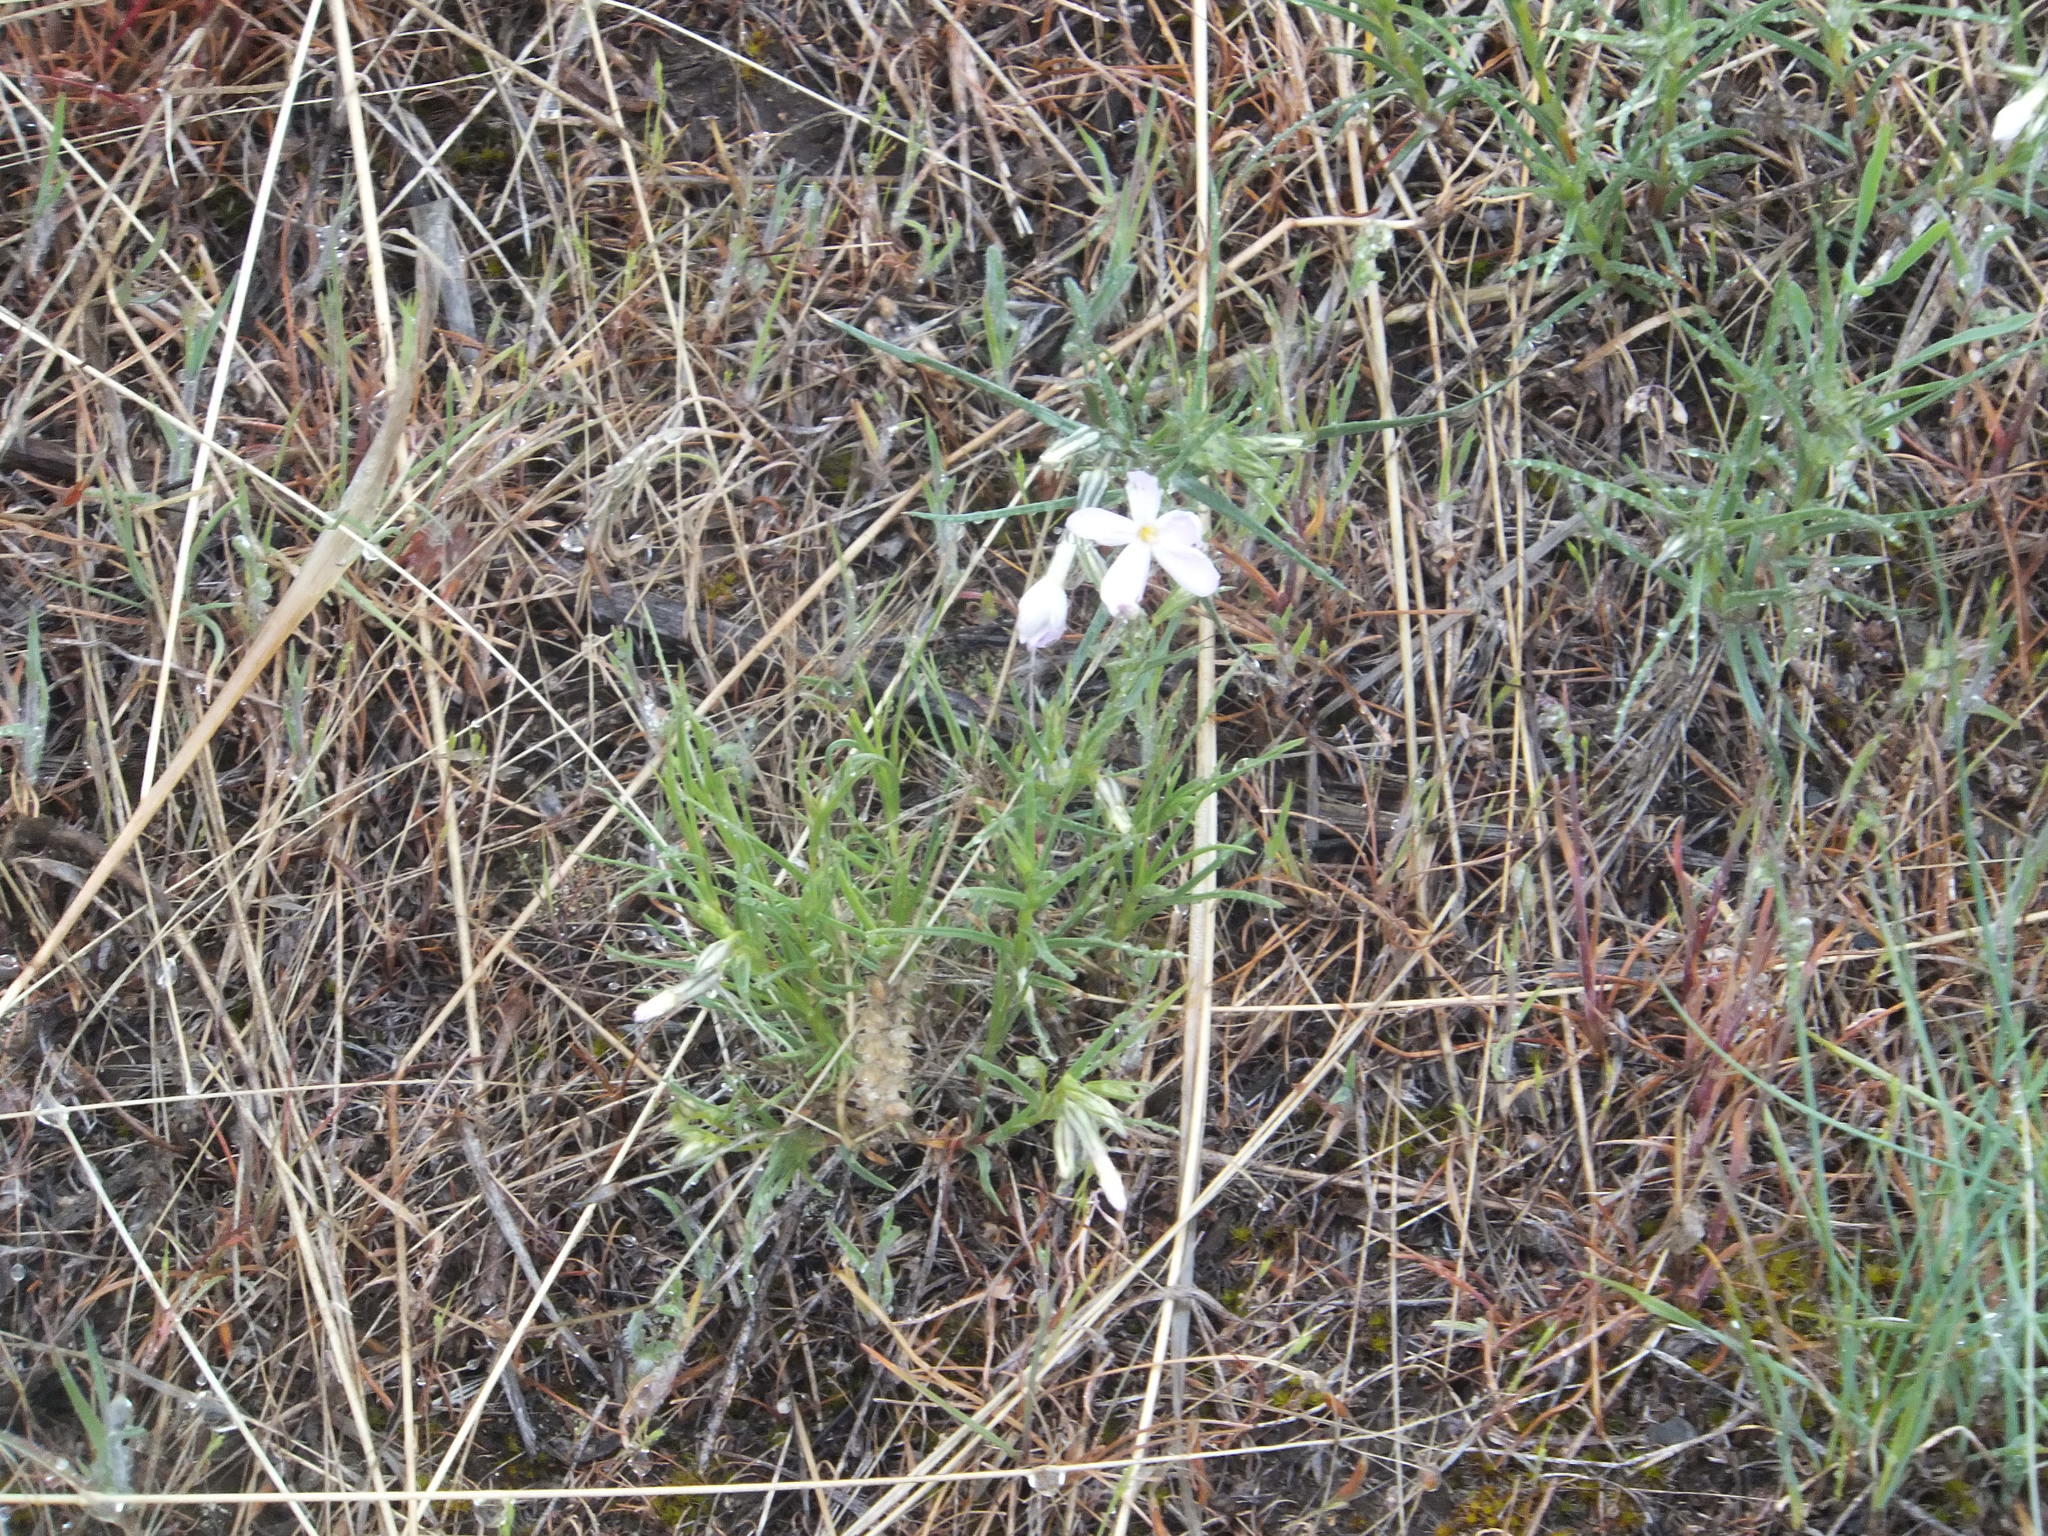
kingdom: Plantae
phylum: Tracheophyta
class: Magnoliopsida
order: Ericales
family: Polemoniaceae
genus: Phlox
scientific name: Phlox longifolia
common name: Longleaf phlox
